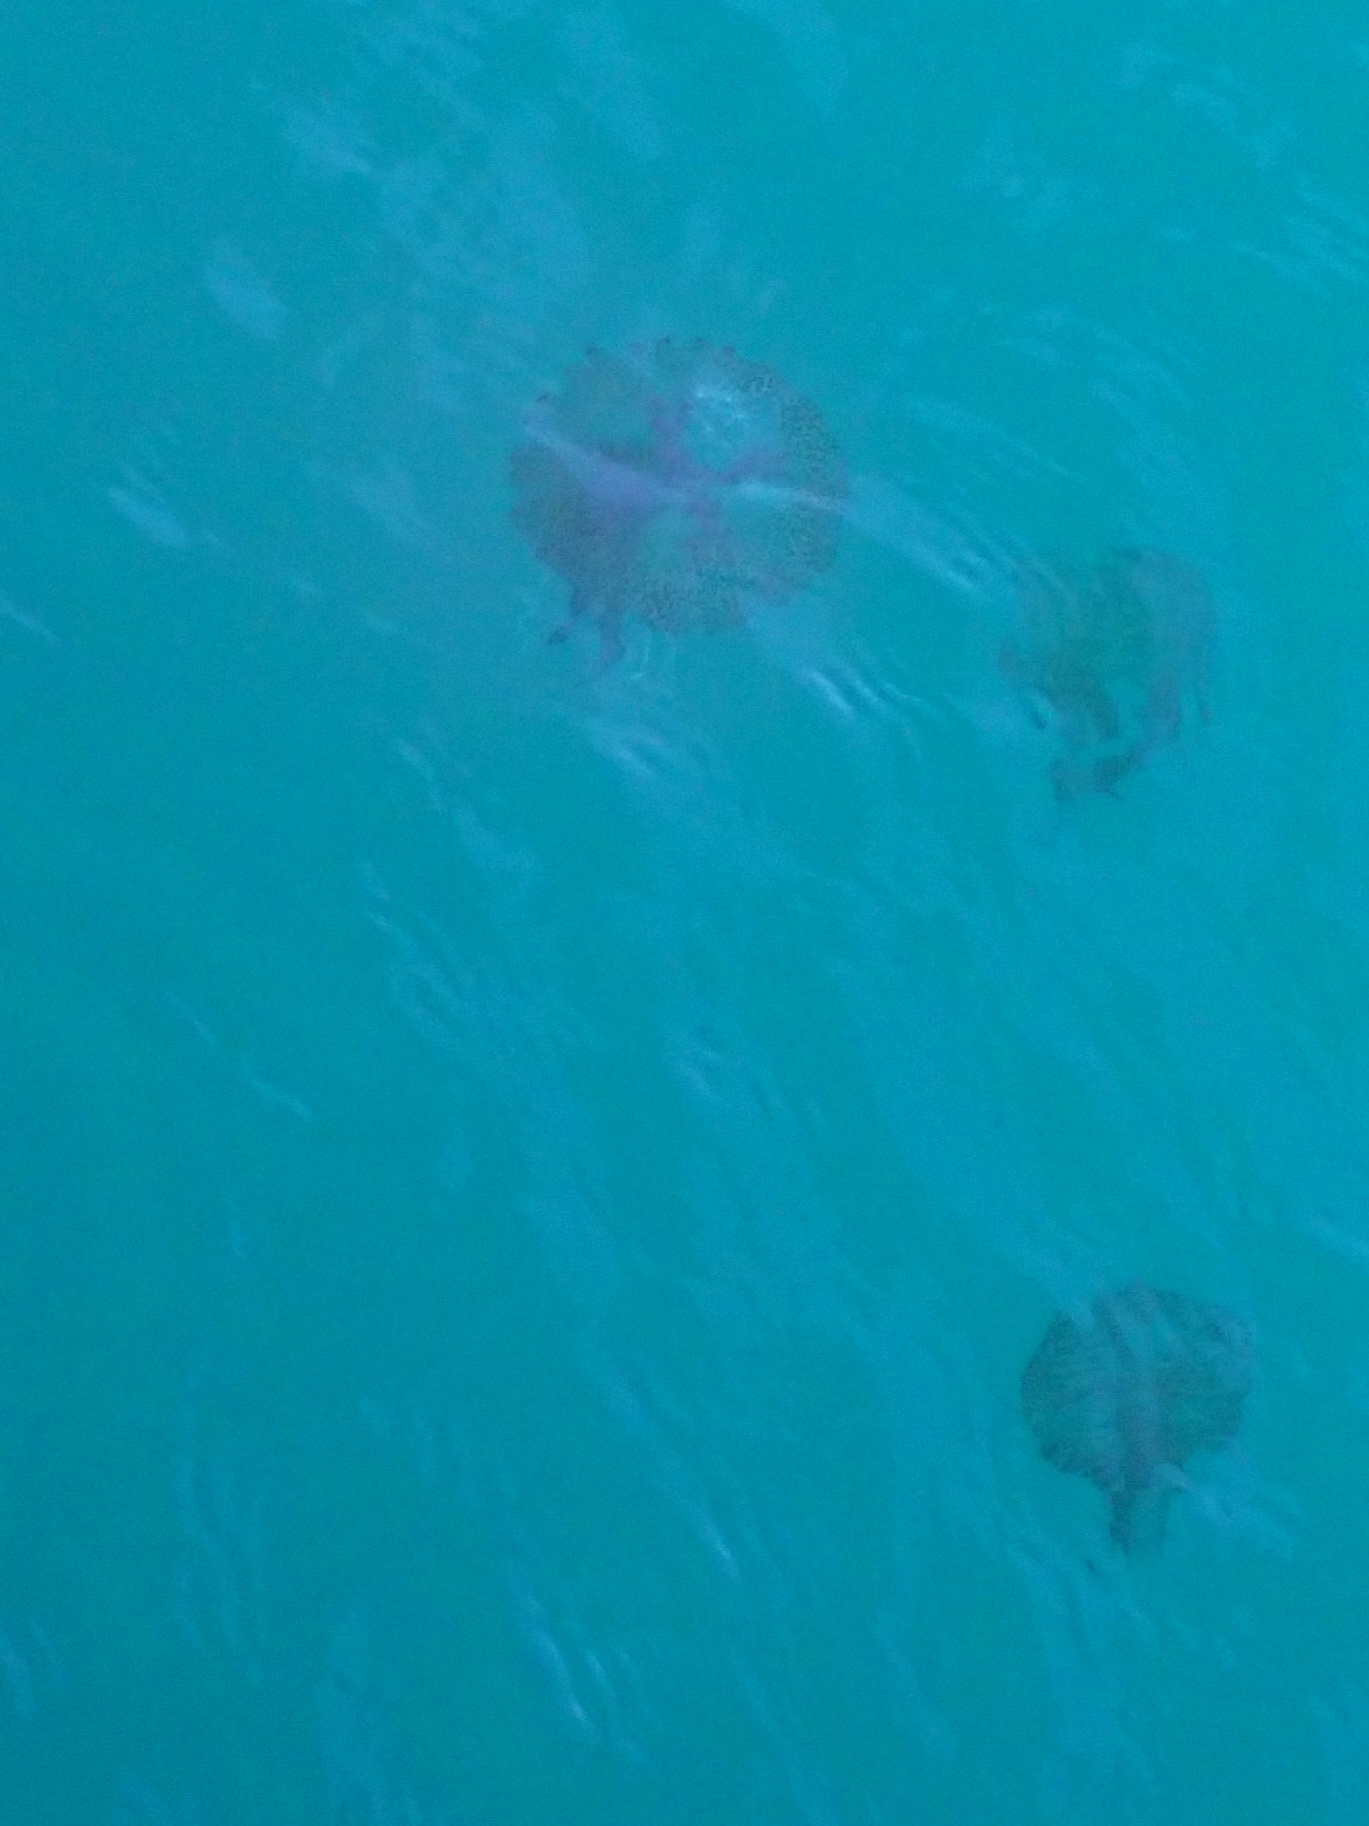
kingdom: Animalia
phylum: Cnidaria
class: Scyphozoa
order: Semaeostomeae
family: Pelagiidae
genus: Pelagia
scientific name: Pelagia noctiluca
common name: Mauve stinger
